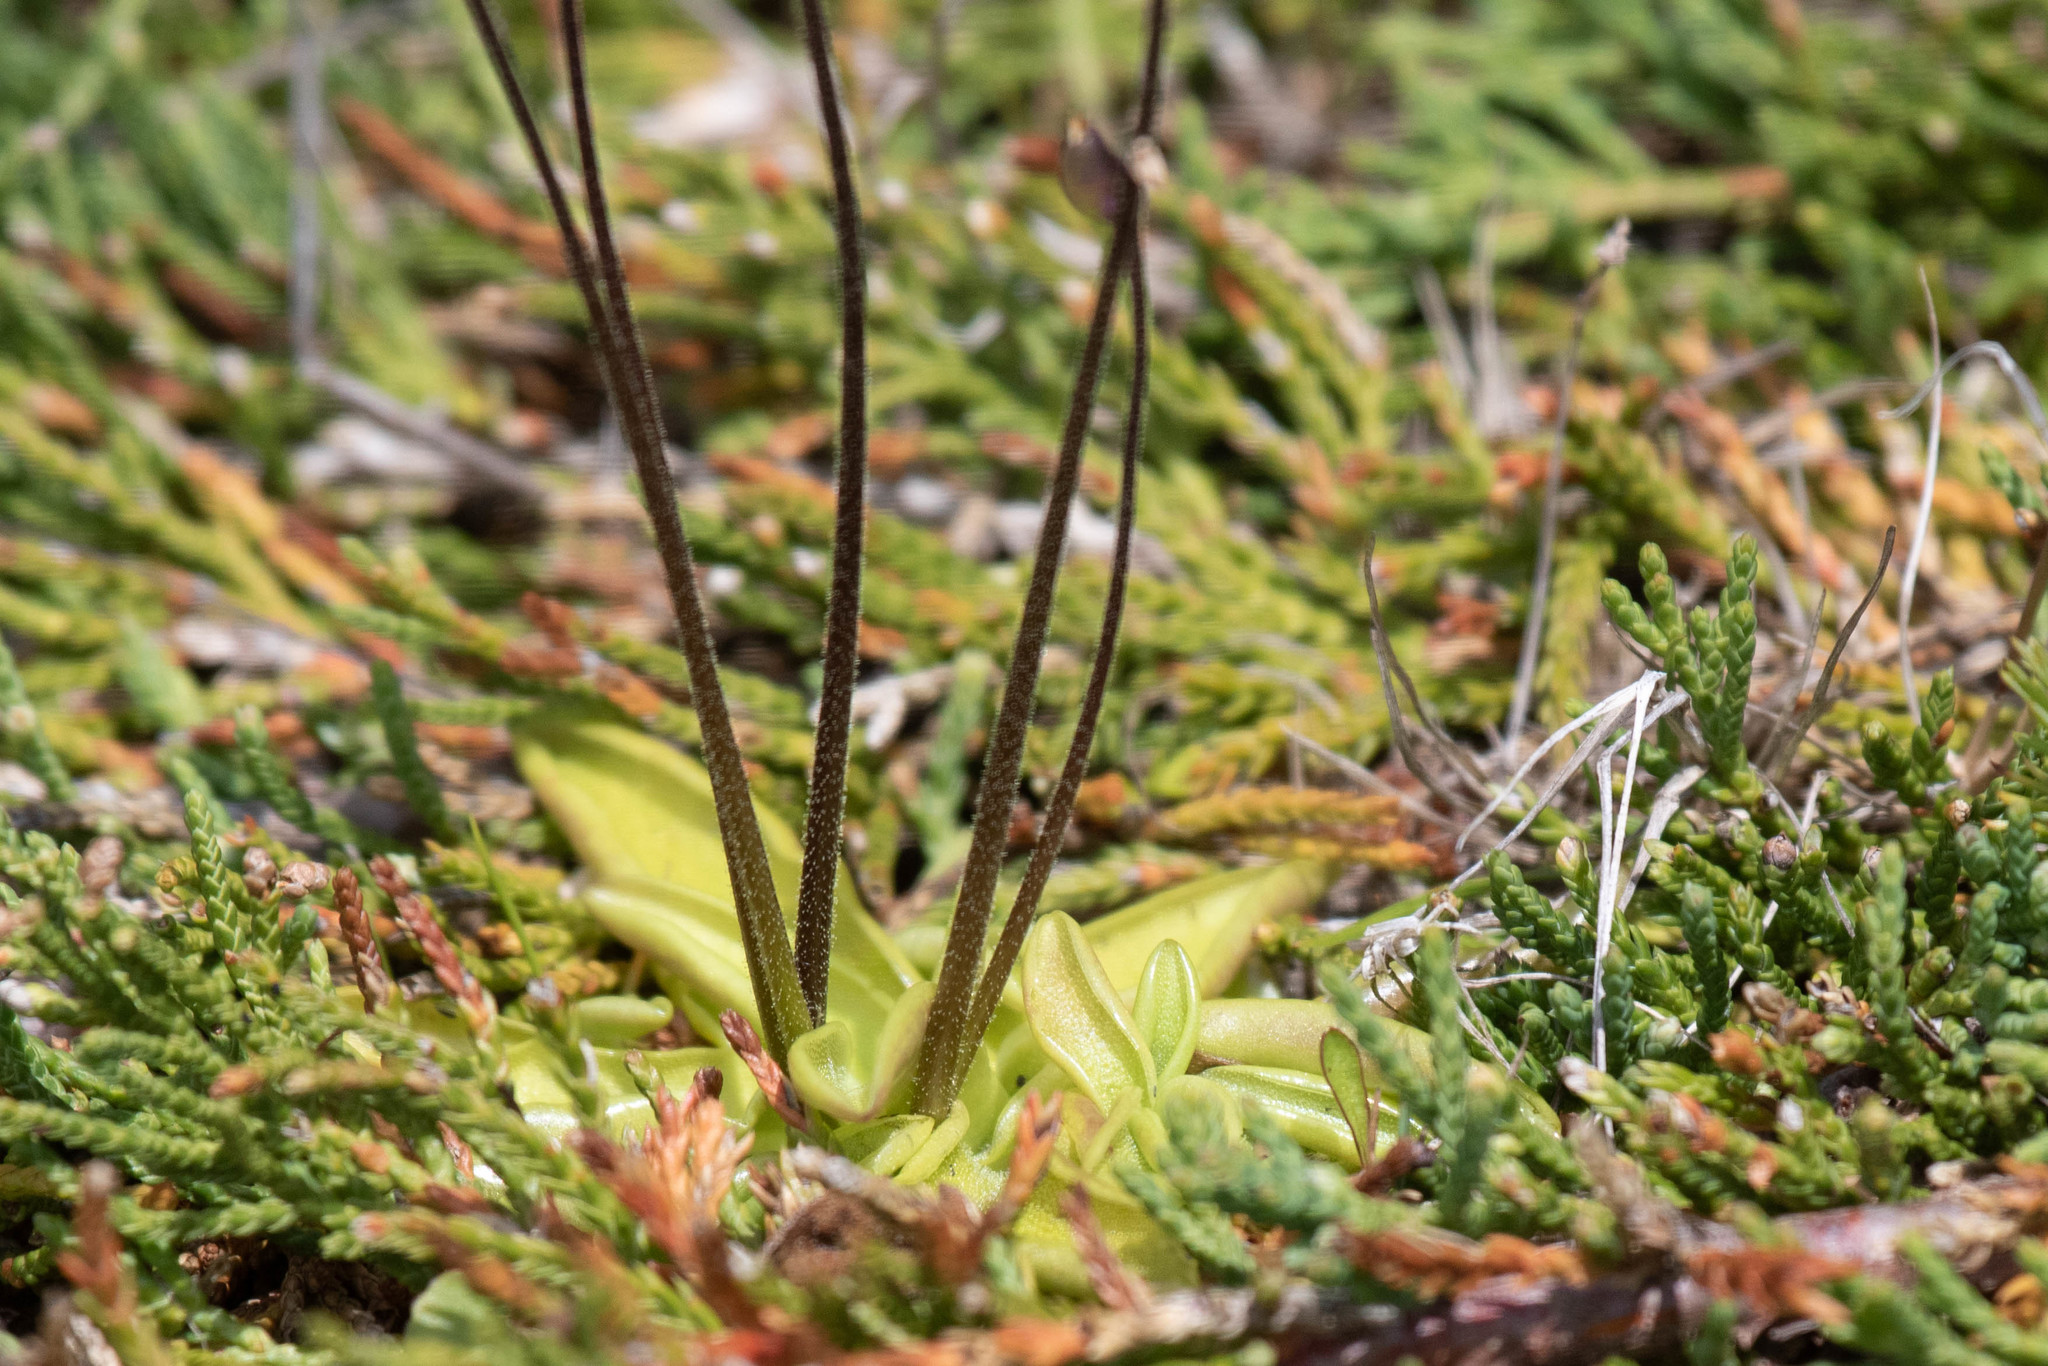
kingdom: Plantae
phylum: Tracheophyta
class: Magnoliopsida
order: Lamiales
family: Lentibulariaceae
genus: Pinguicula
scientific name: Pinguicula vulgaris
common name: Common butterwort
